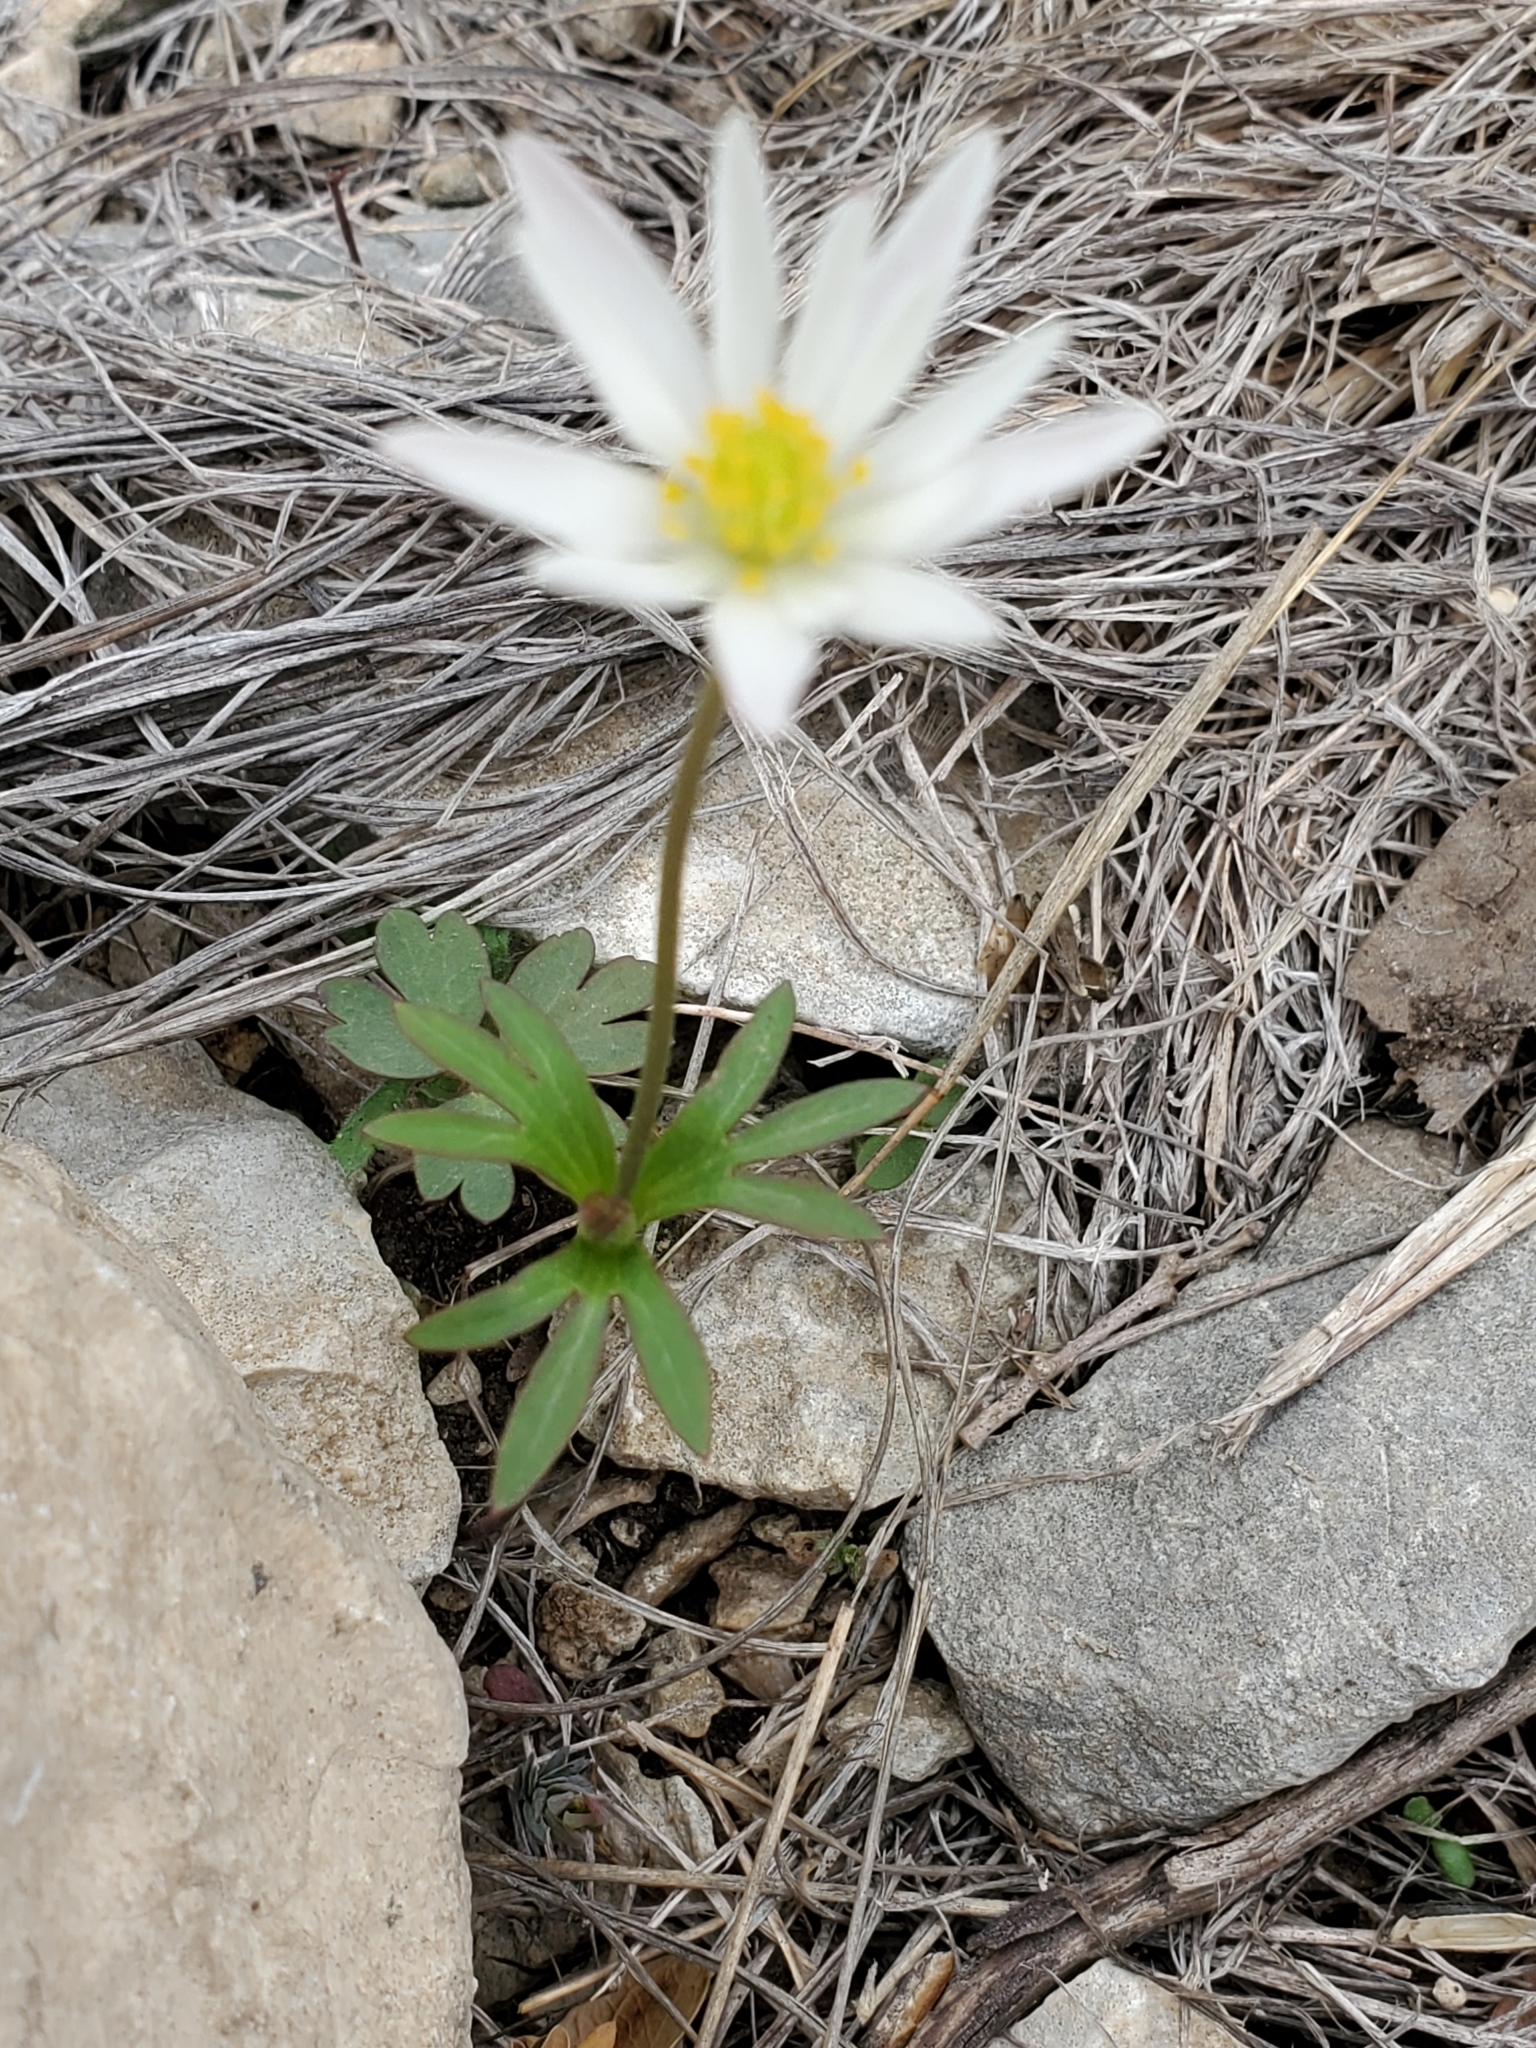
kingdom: Plantae
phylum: Tracheophyta
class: Magnoliopsida
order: Ranunculales
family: Ranunculaceae
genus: Anemone
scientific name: Anemone edwardsiana
